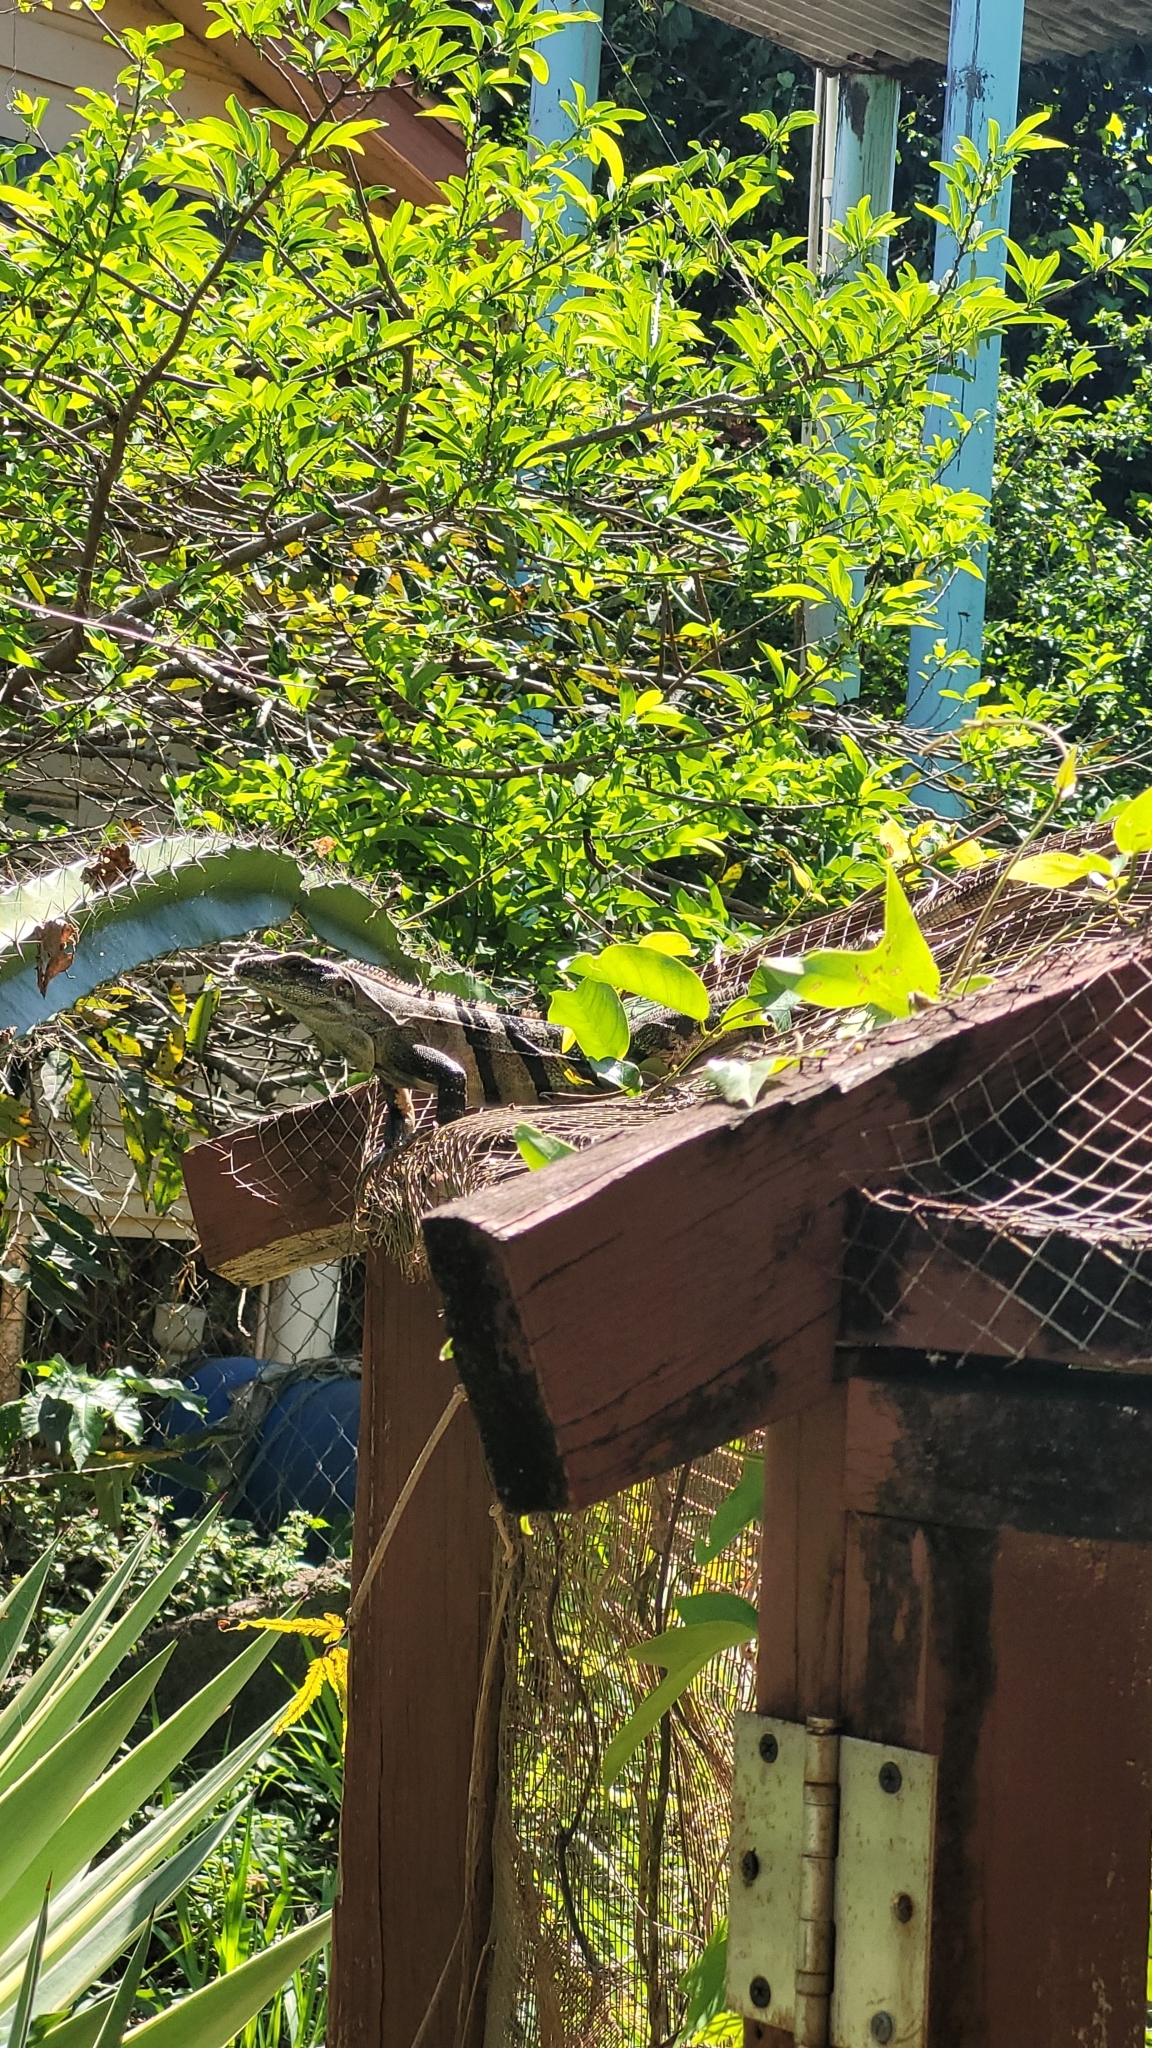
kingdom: Animalia
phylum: Chordata
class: Squamata
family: Iguanidae
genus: Ctenosaura
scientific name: Ctenosaura similis
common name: Black spiny-tailed iguana
